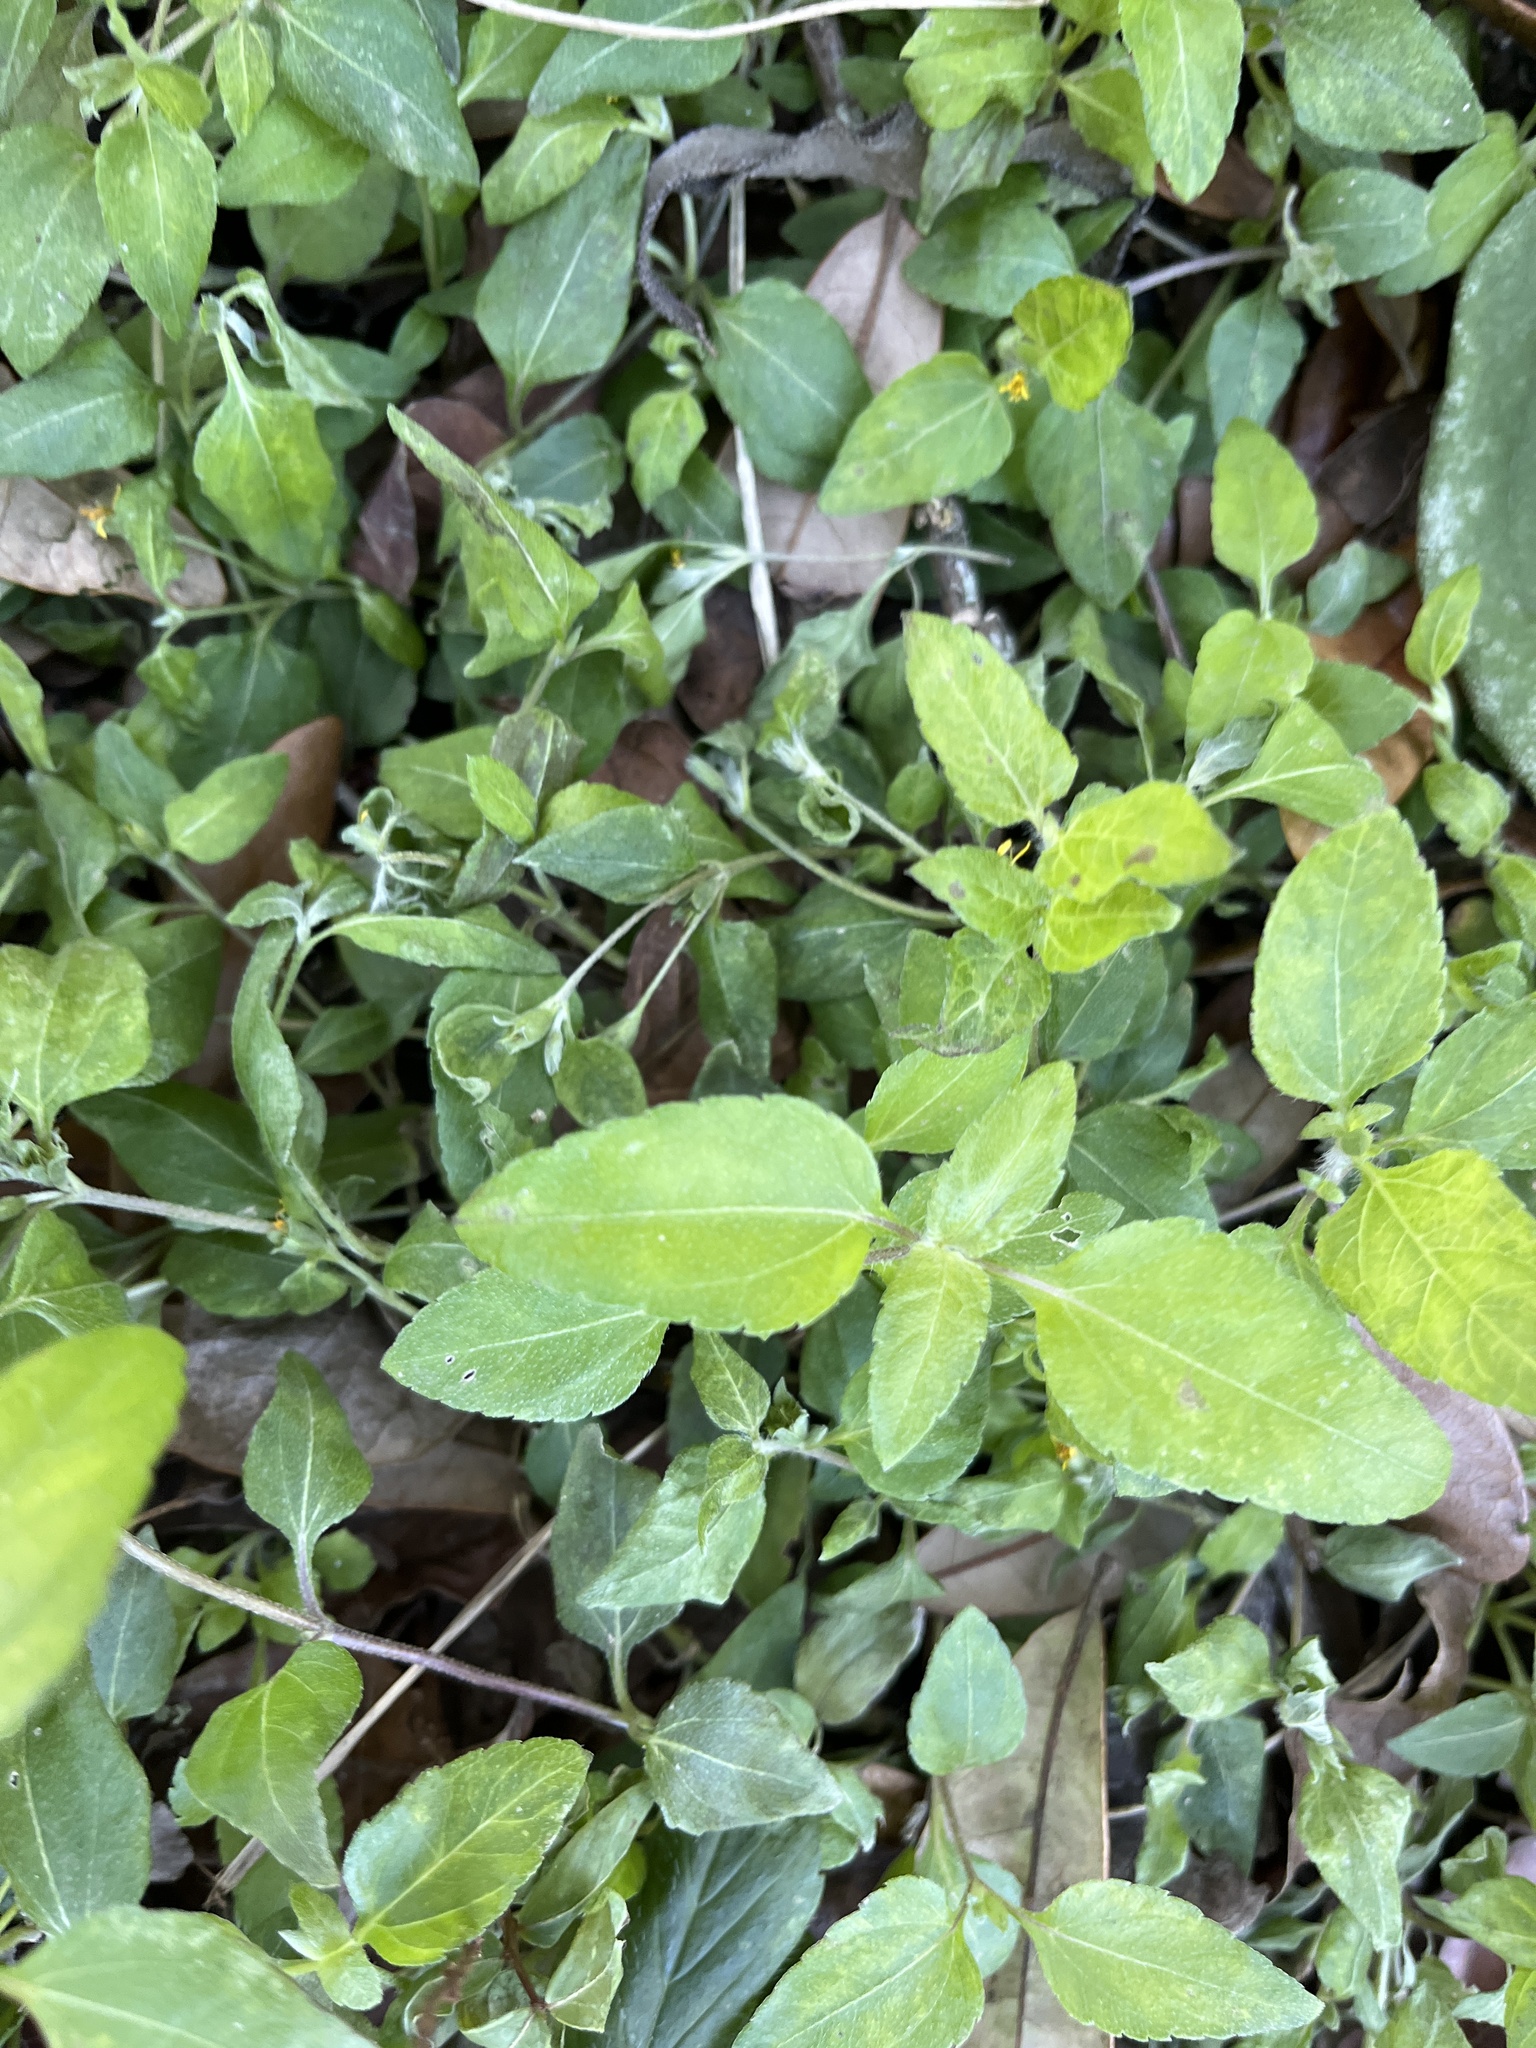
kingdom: Plantae
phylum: Tracheophyta
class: Magnoliopsida
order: Asterales
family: Asteraceae
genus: Calyptocarpus
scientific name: Calyptocarpus vialis
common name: Straggler daisy
